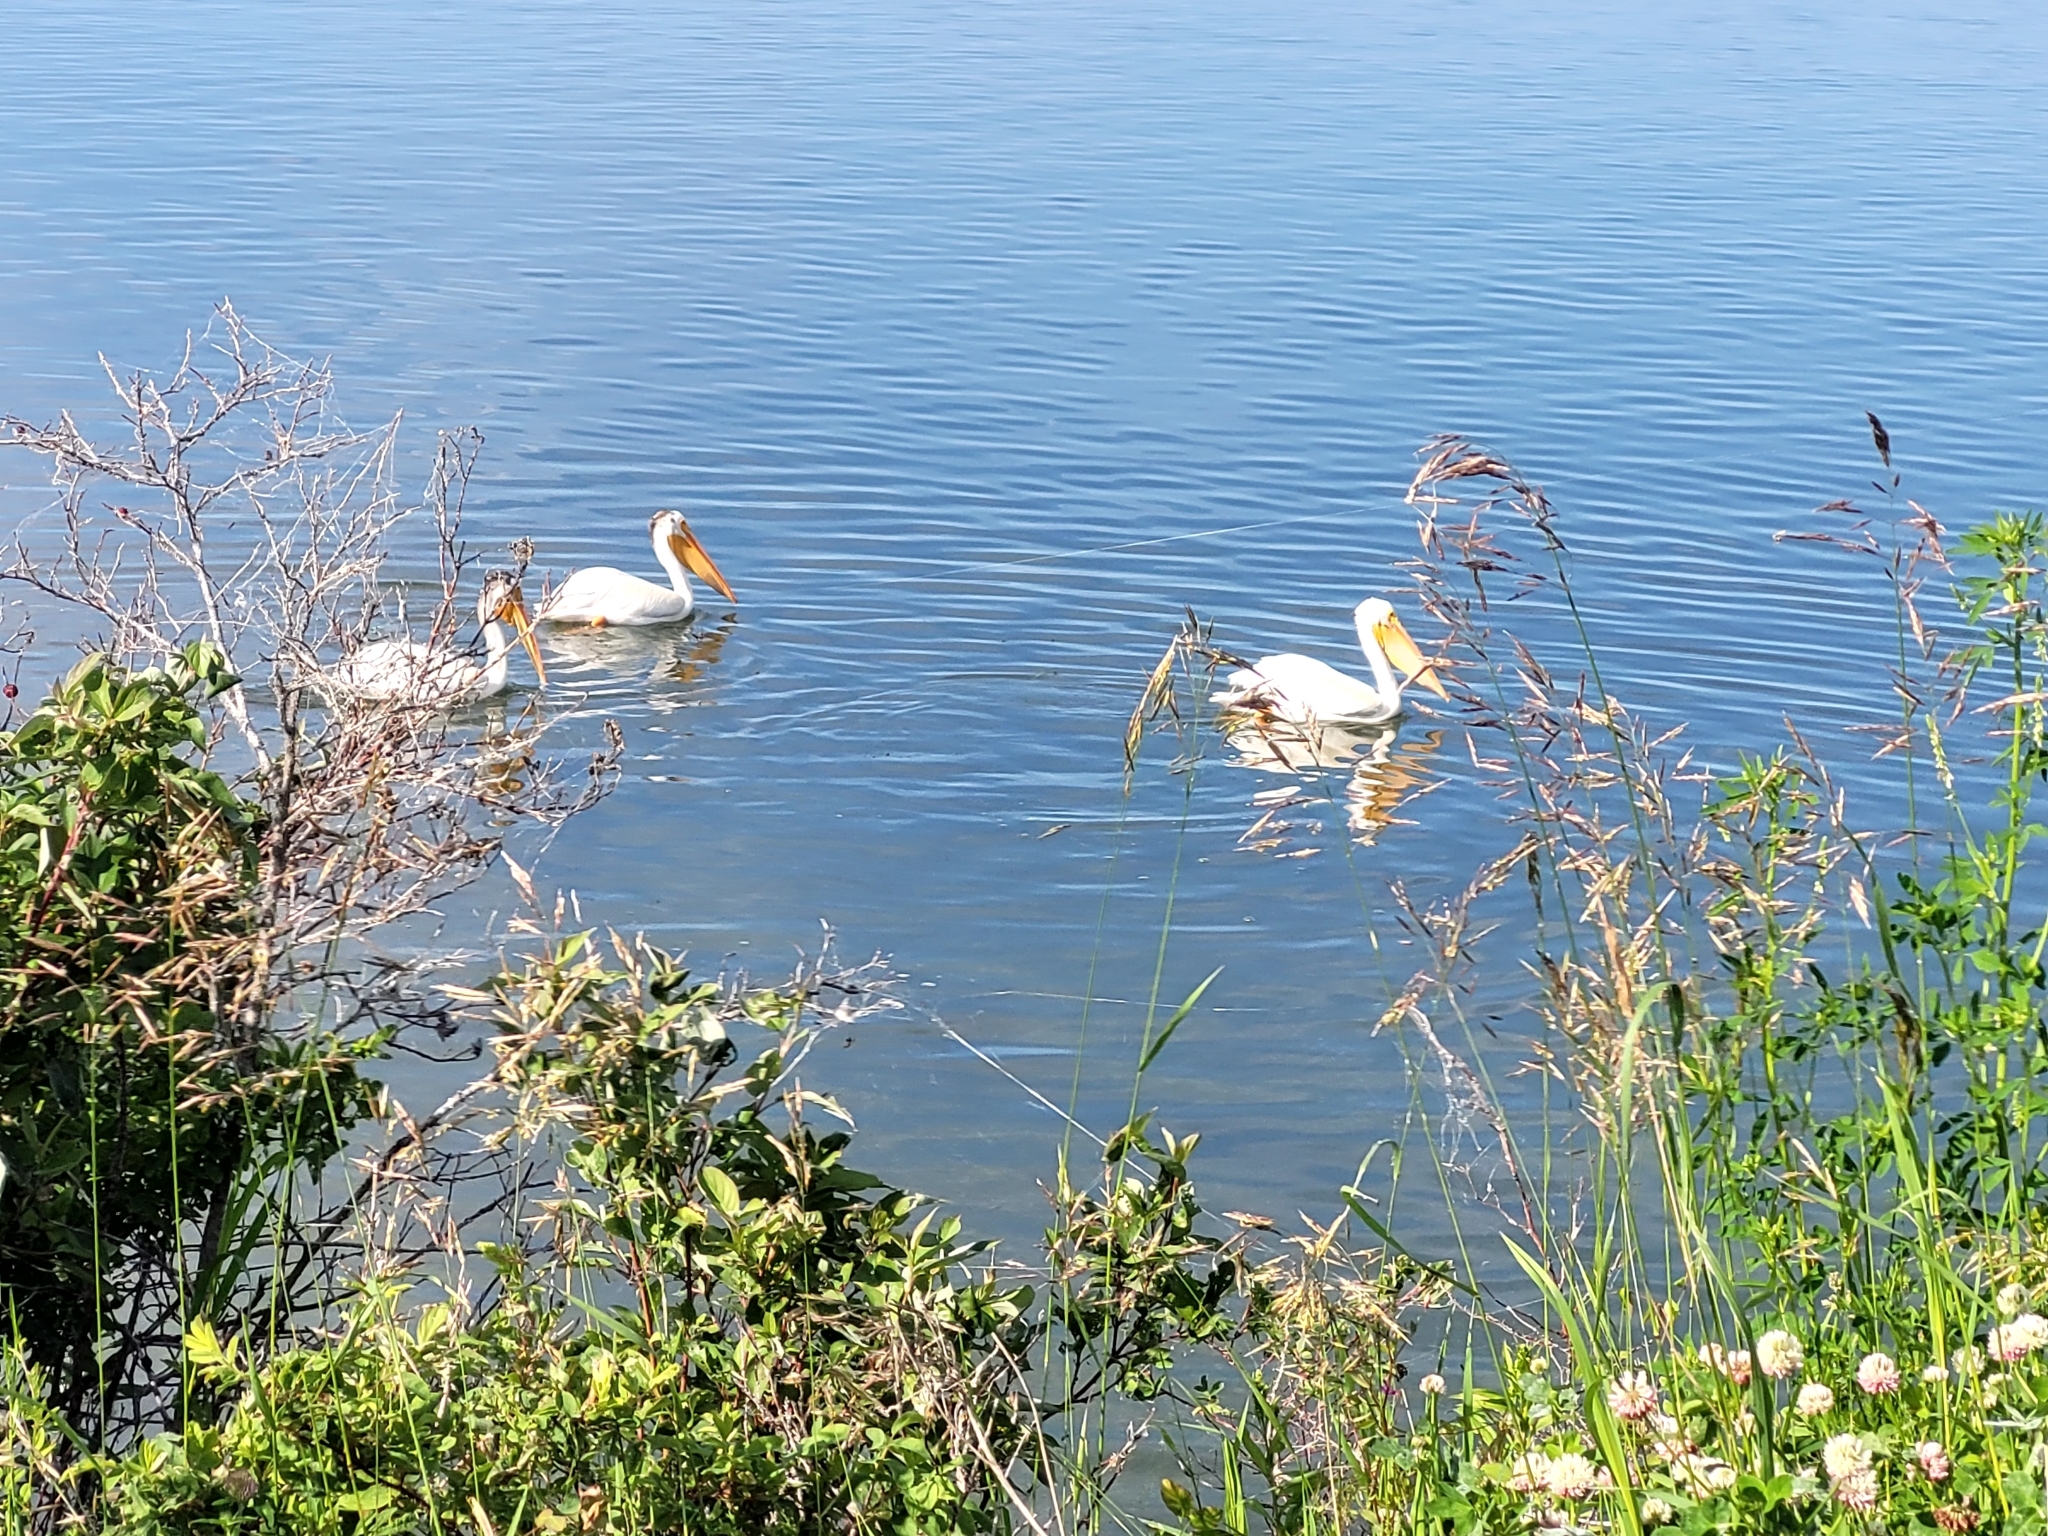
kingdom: Animalia
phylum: Chordata
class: Aves
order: Pelecaniformes
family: Pelecanidae
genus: Pelecanus
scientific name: Pelecanus erythrorhynchos
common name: American white pelican
